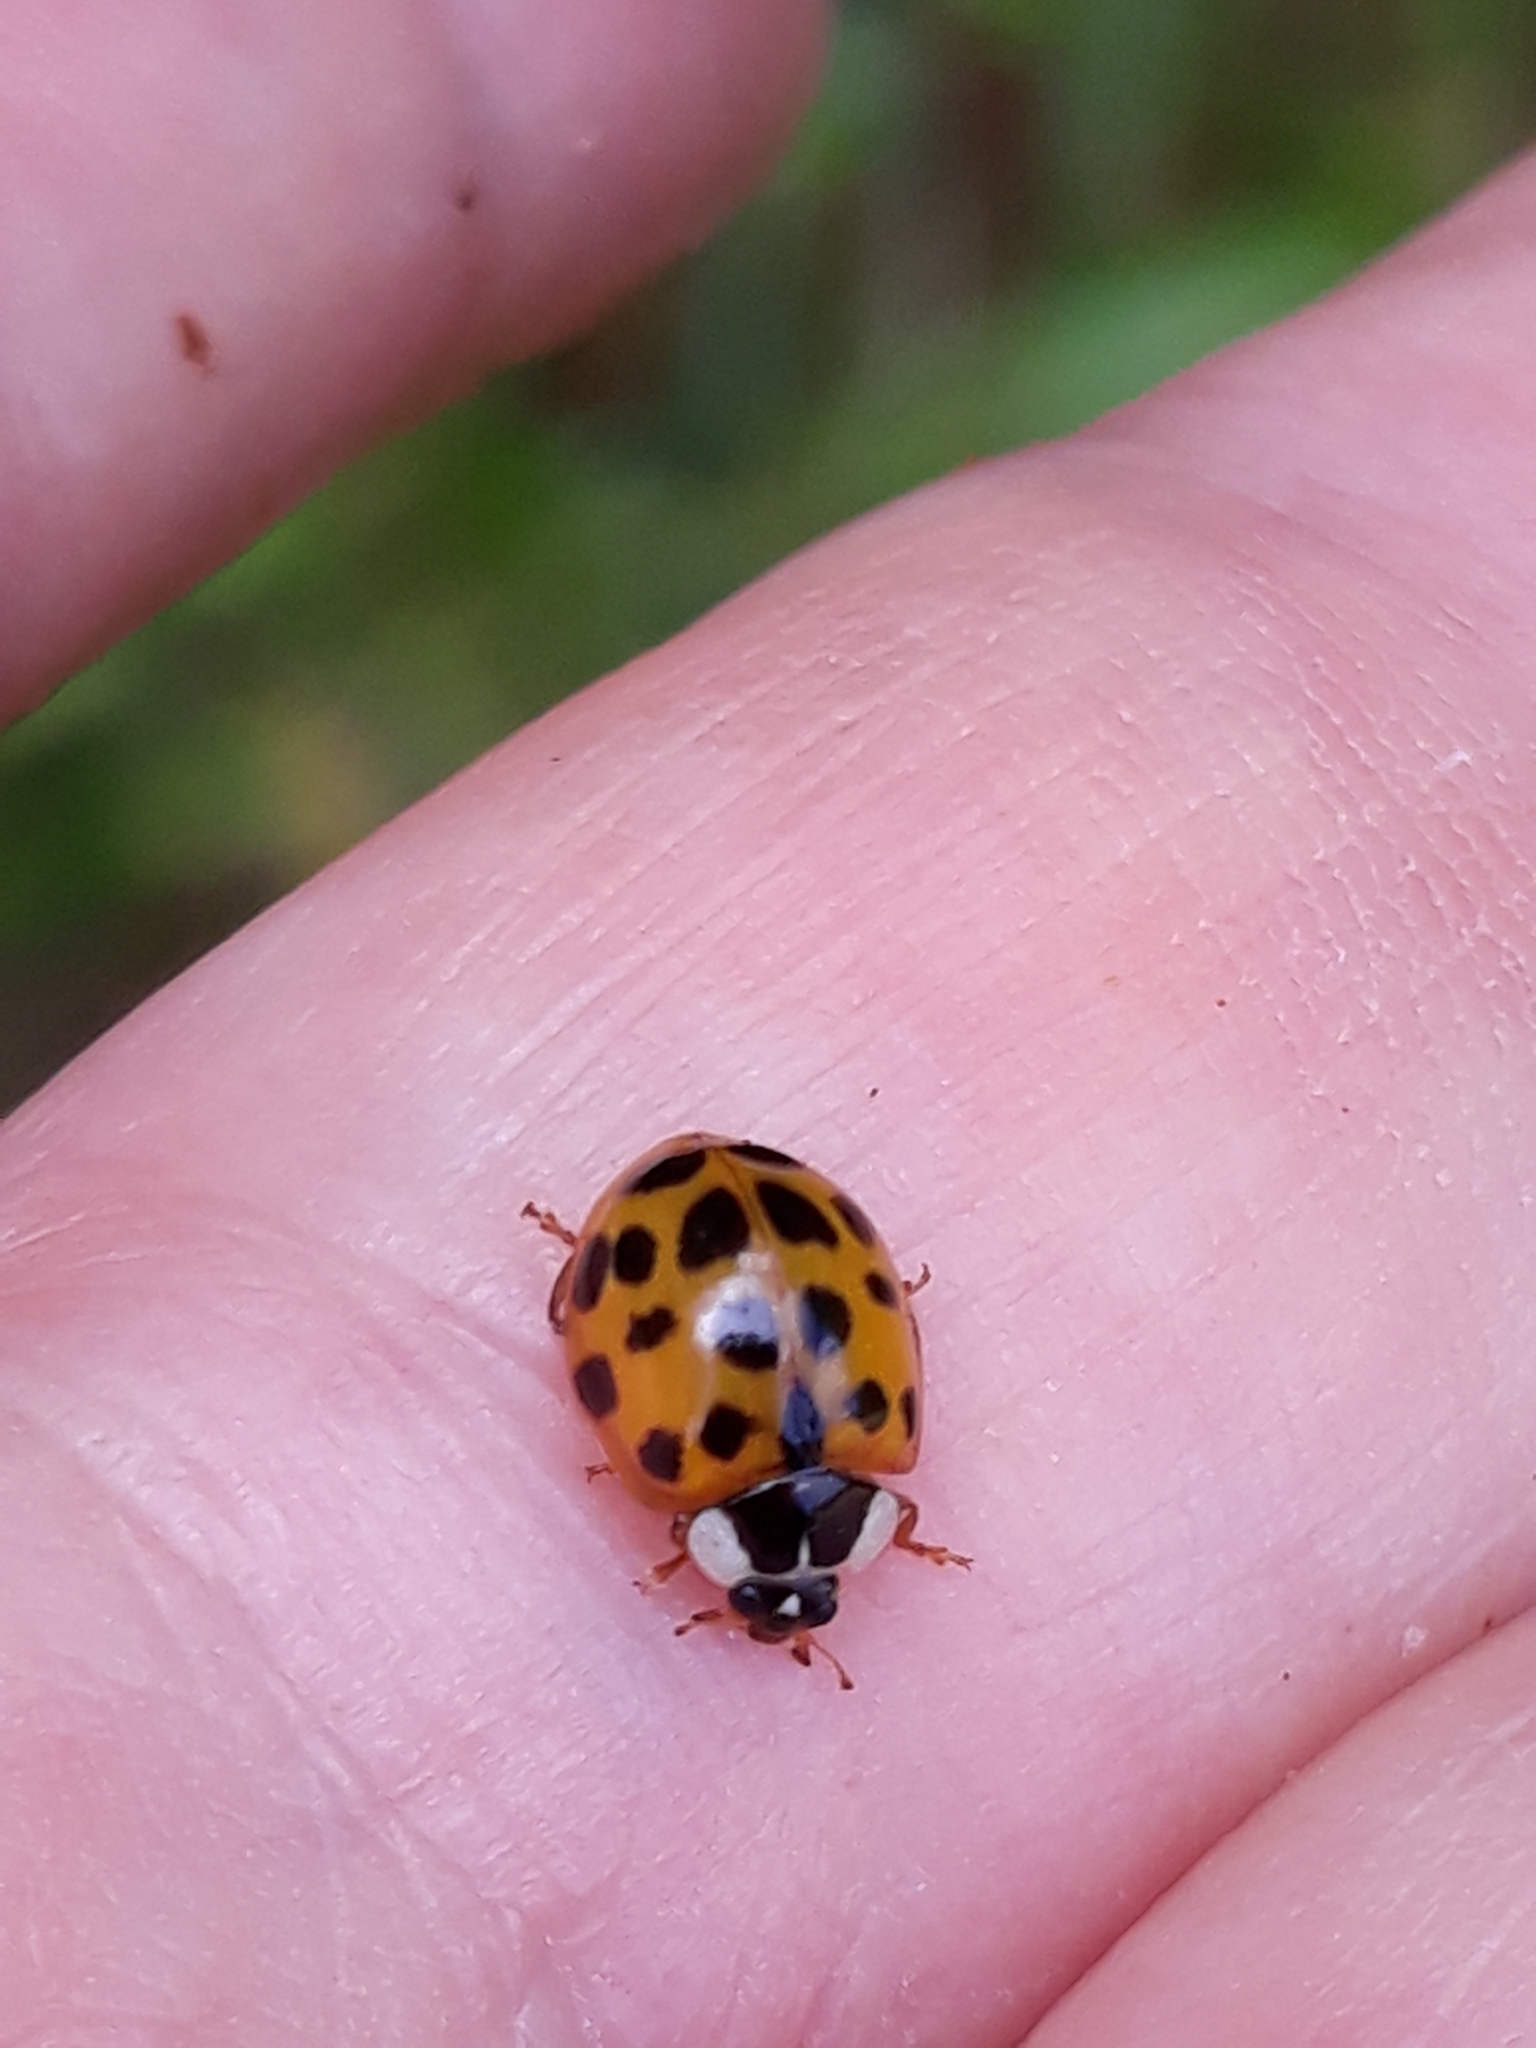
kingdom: Animalia
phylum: Arthropoda
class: Insecta
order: Coleoptera
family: Coccinellidae
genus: Harmonia
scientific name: Harmonia axyridis
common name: Harlequin ladybird
